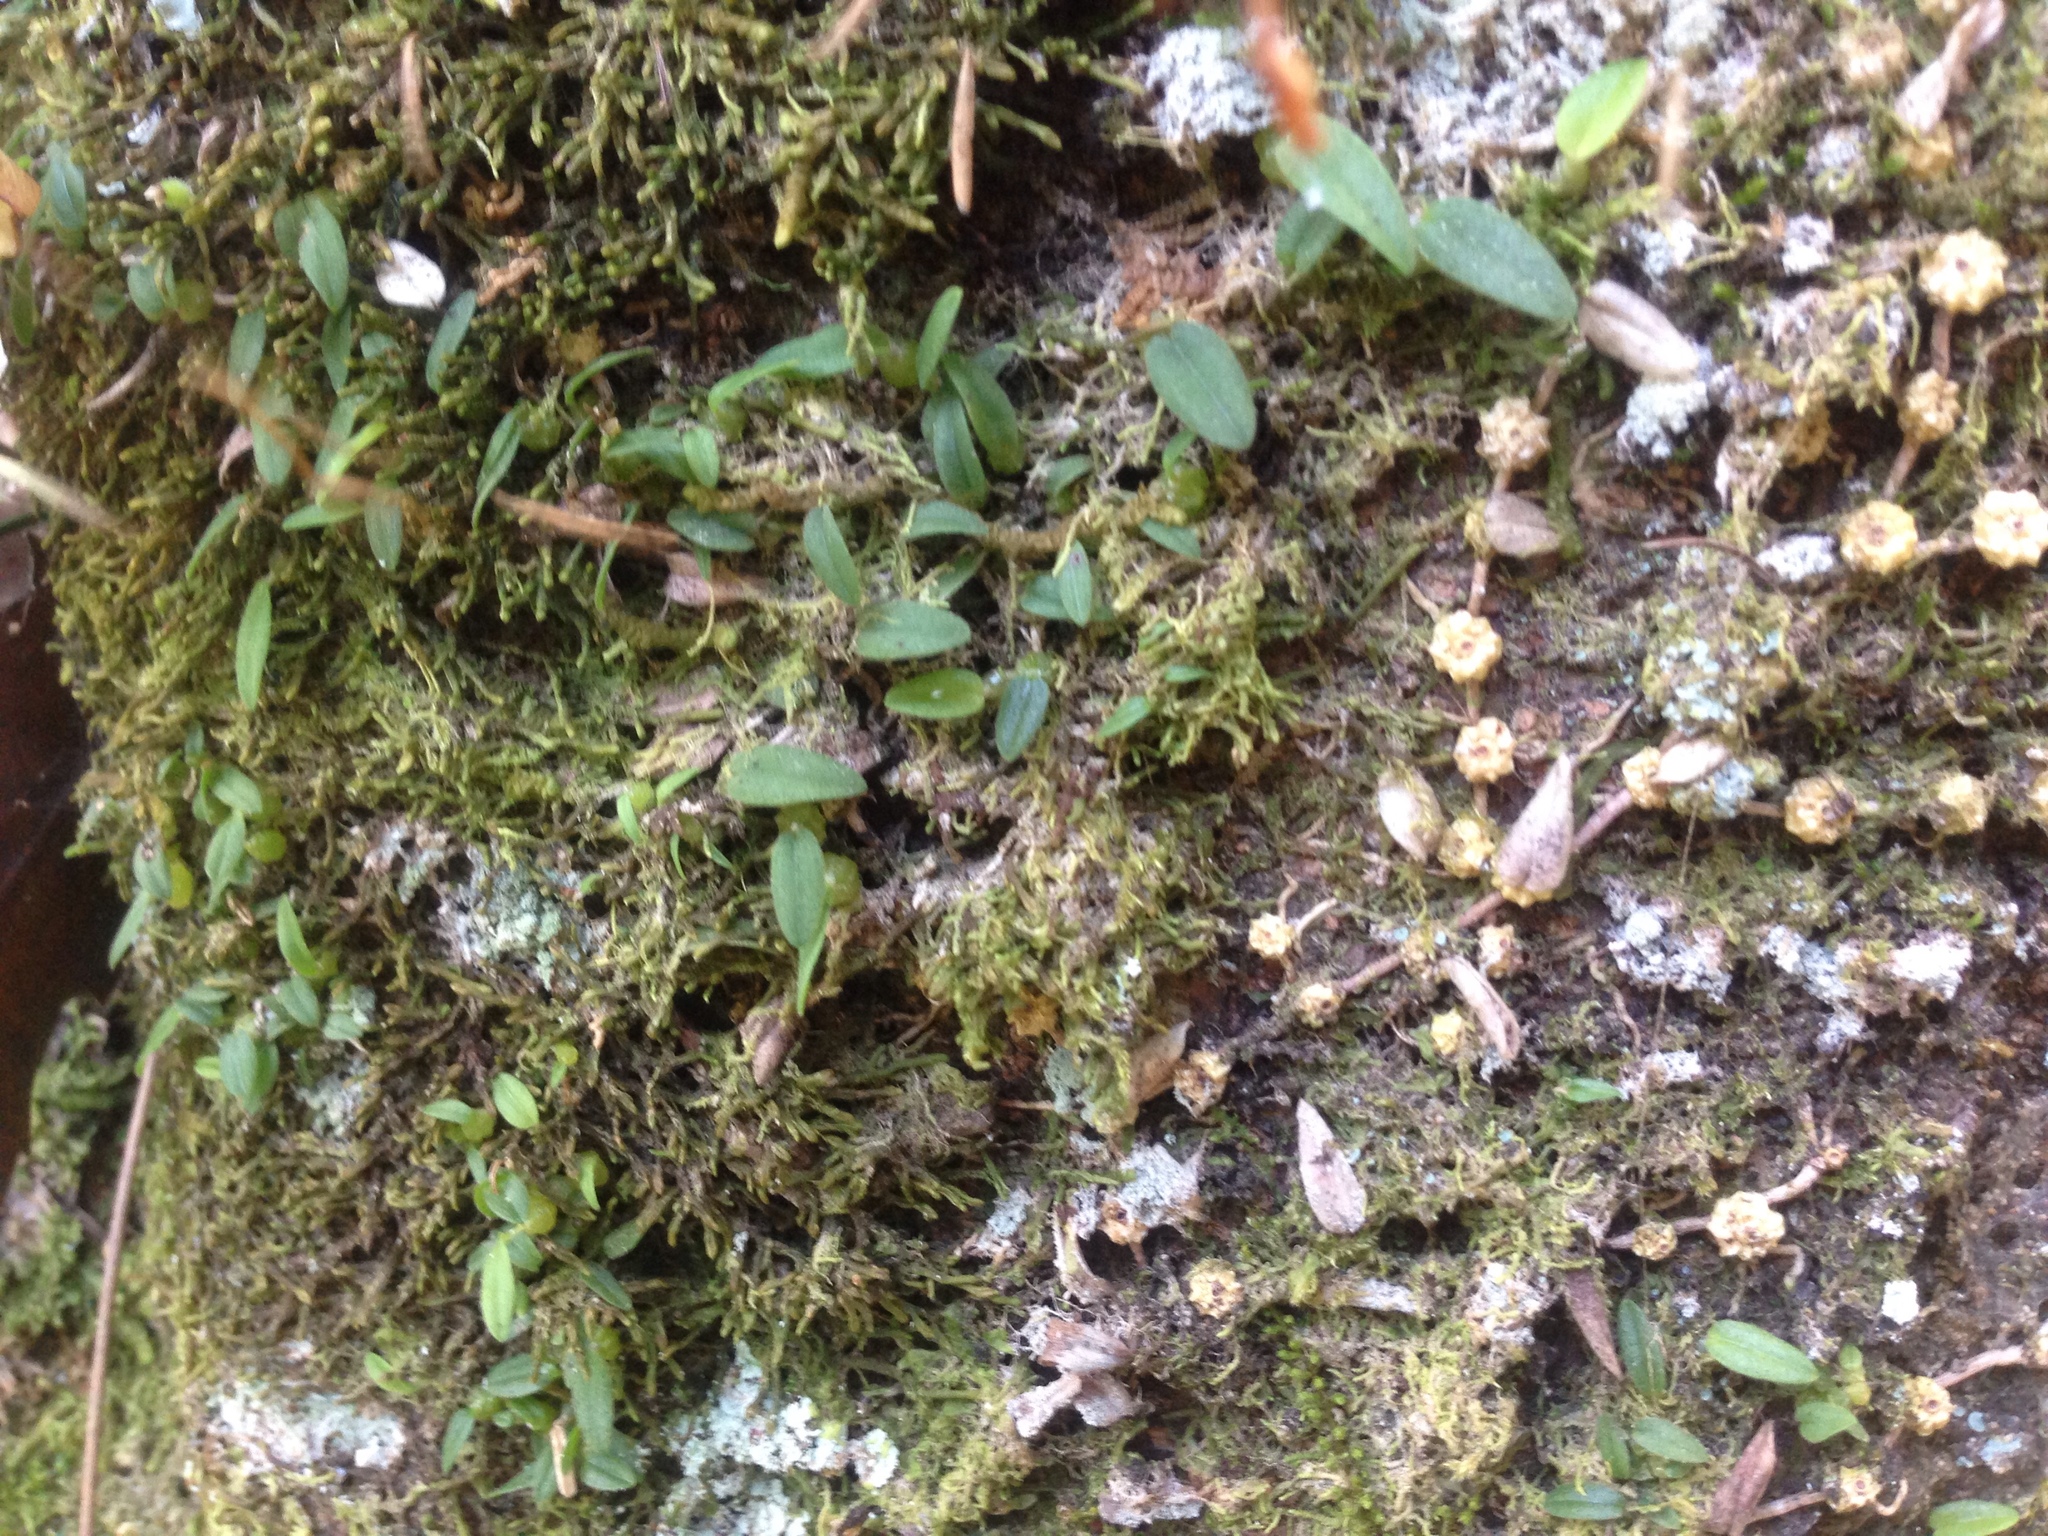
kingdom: Plantae
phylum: Tracheophyta
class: Liliopsida
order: Asparagales
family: Orchidaceae
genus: Bulbophyllum
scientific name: Bulbophyllum pygmaeum
